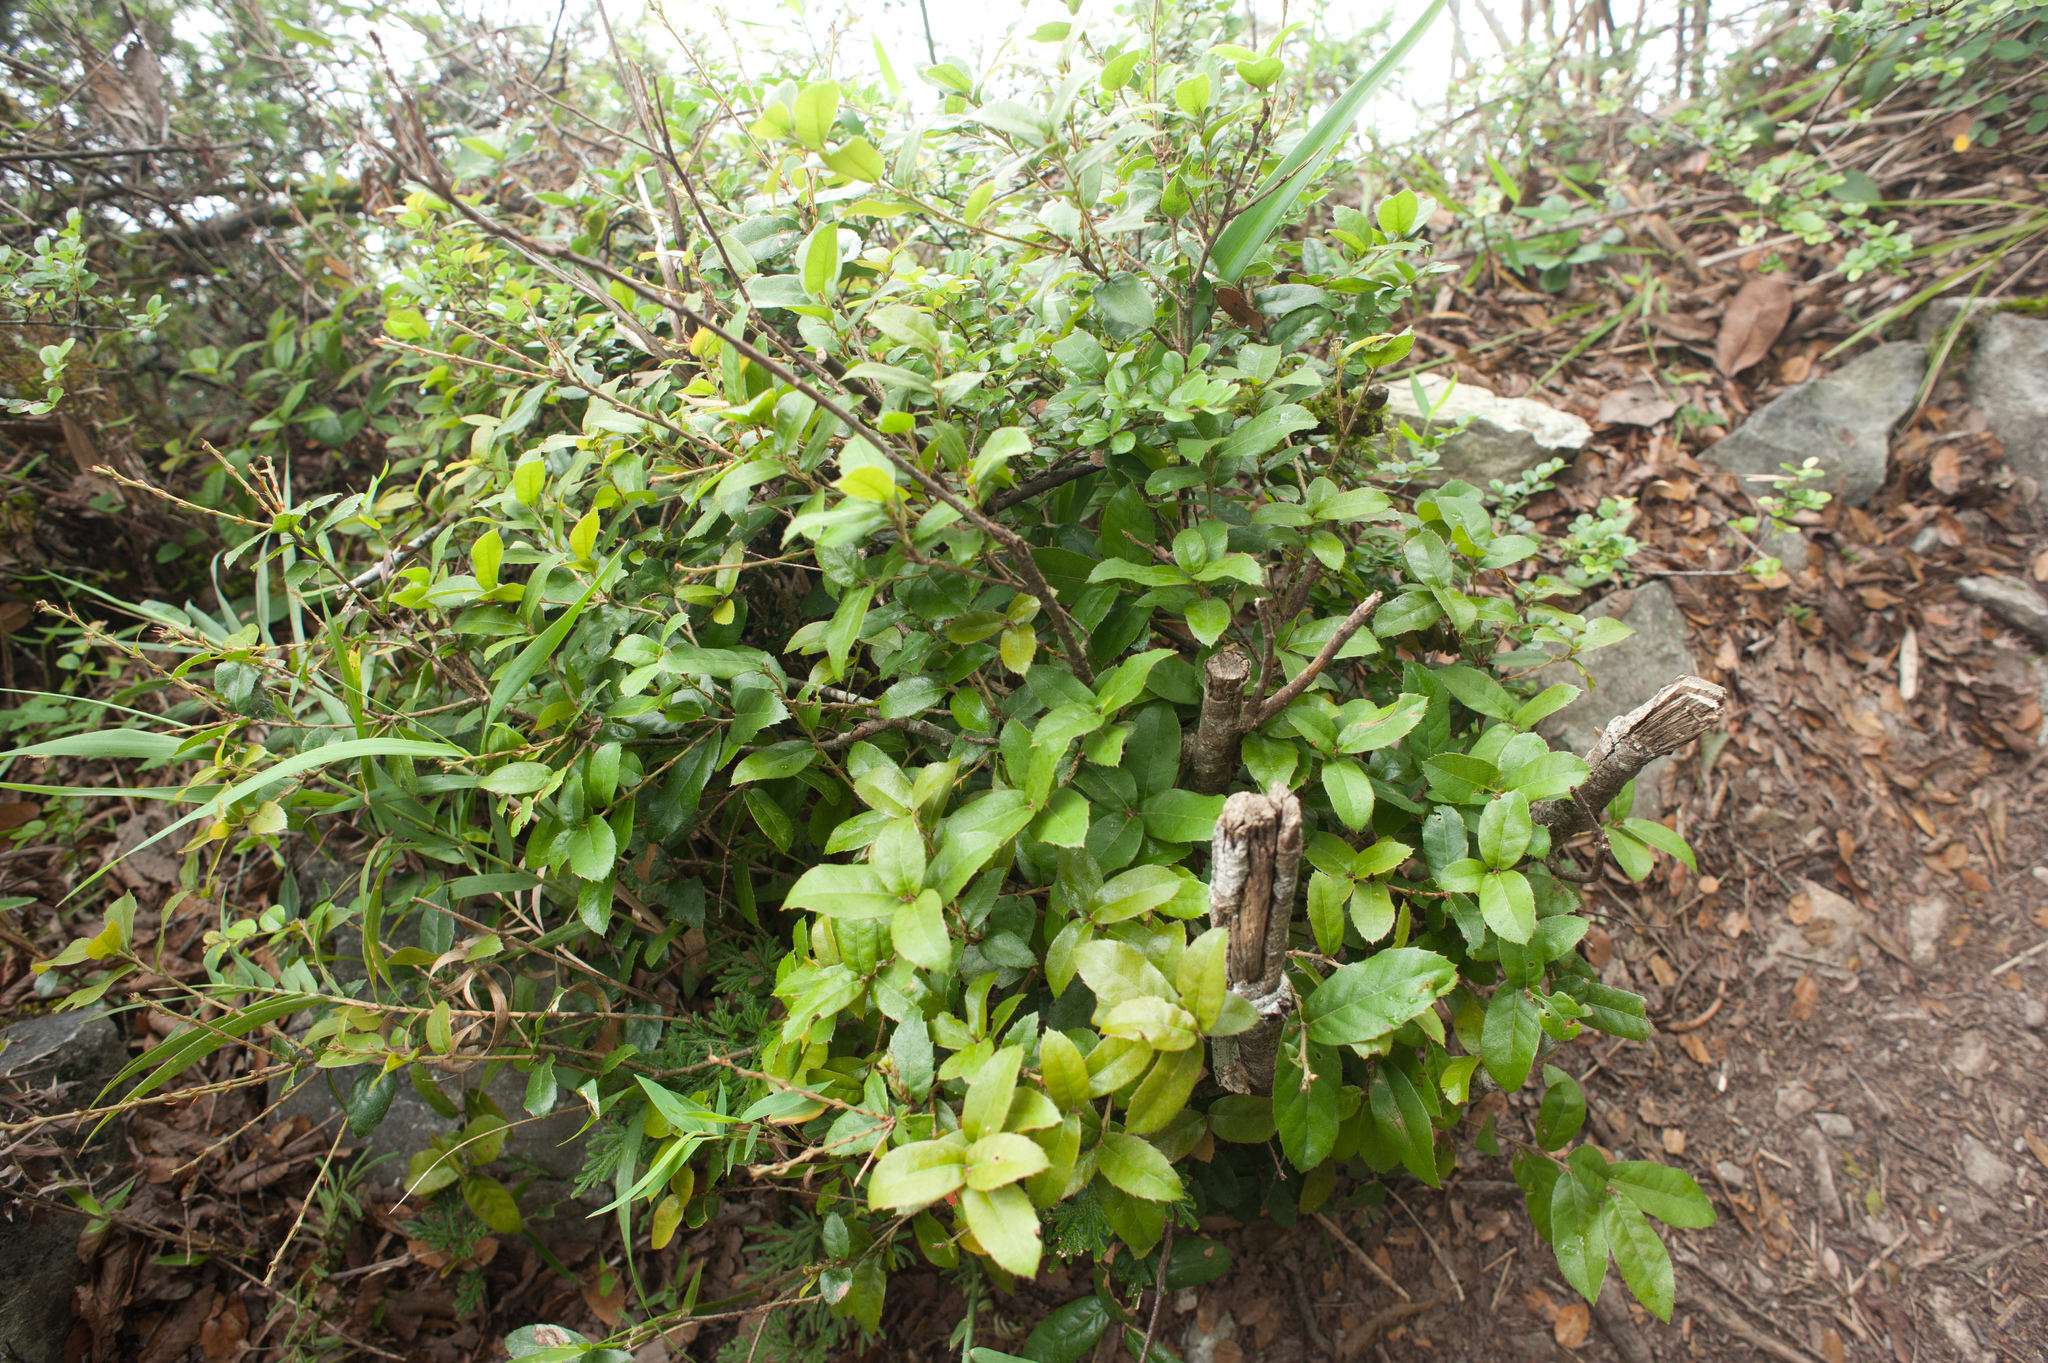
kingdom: Plantae
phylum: Tracheophyta
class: Magnoliopsida
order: Fagales
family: Fagaceae
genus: Quercus
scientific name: Quercus tarokoensis
